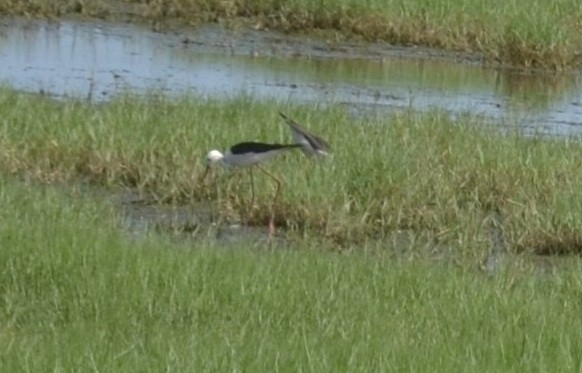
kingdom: Animalia
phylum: Chordata
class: Aves
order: Charadriiformes
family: Recurvirostridae
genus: Himantopus
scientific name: Himantopus himantopus
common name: Black-winged stilt
